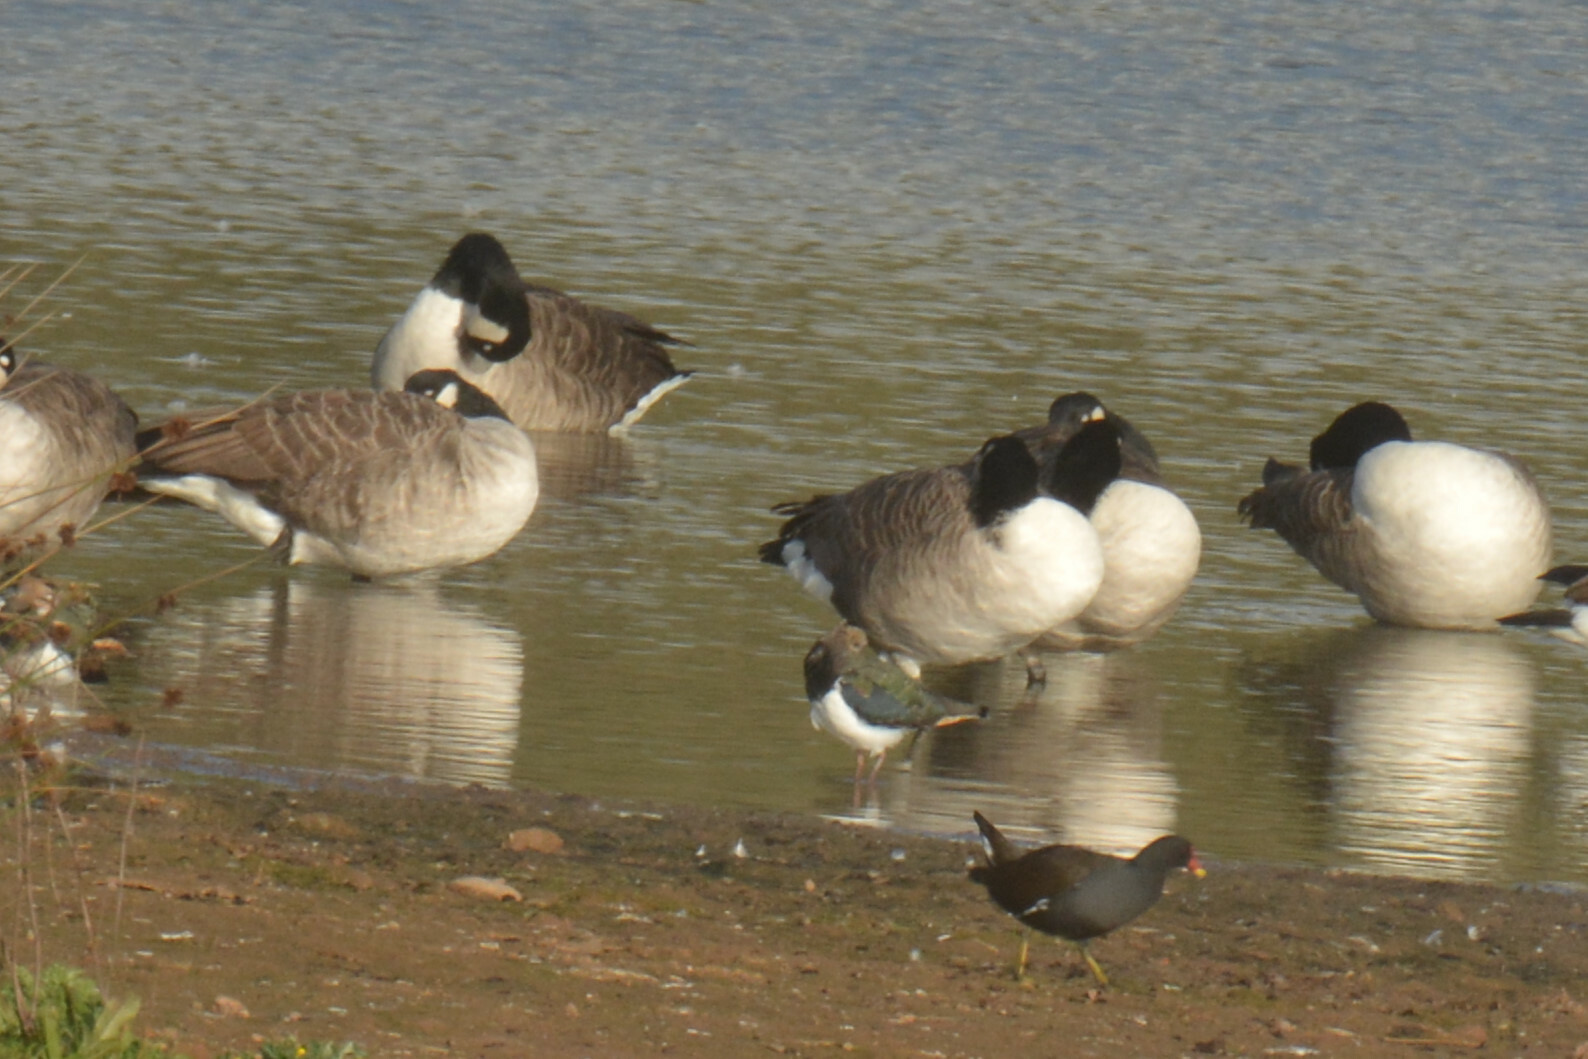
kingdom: Animalia
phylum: Chordata
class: Aves
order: Anseriformes
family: Anatidae
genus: Branta
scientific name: Branta canadensis
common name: Canada goose
